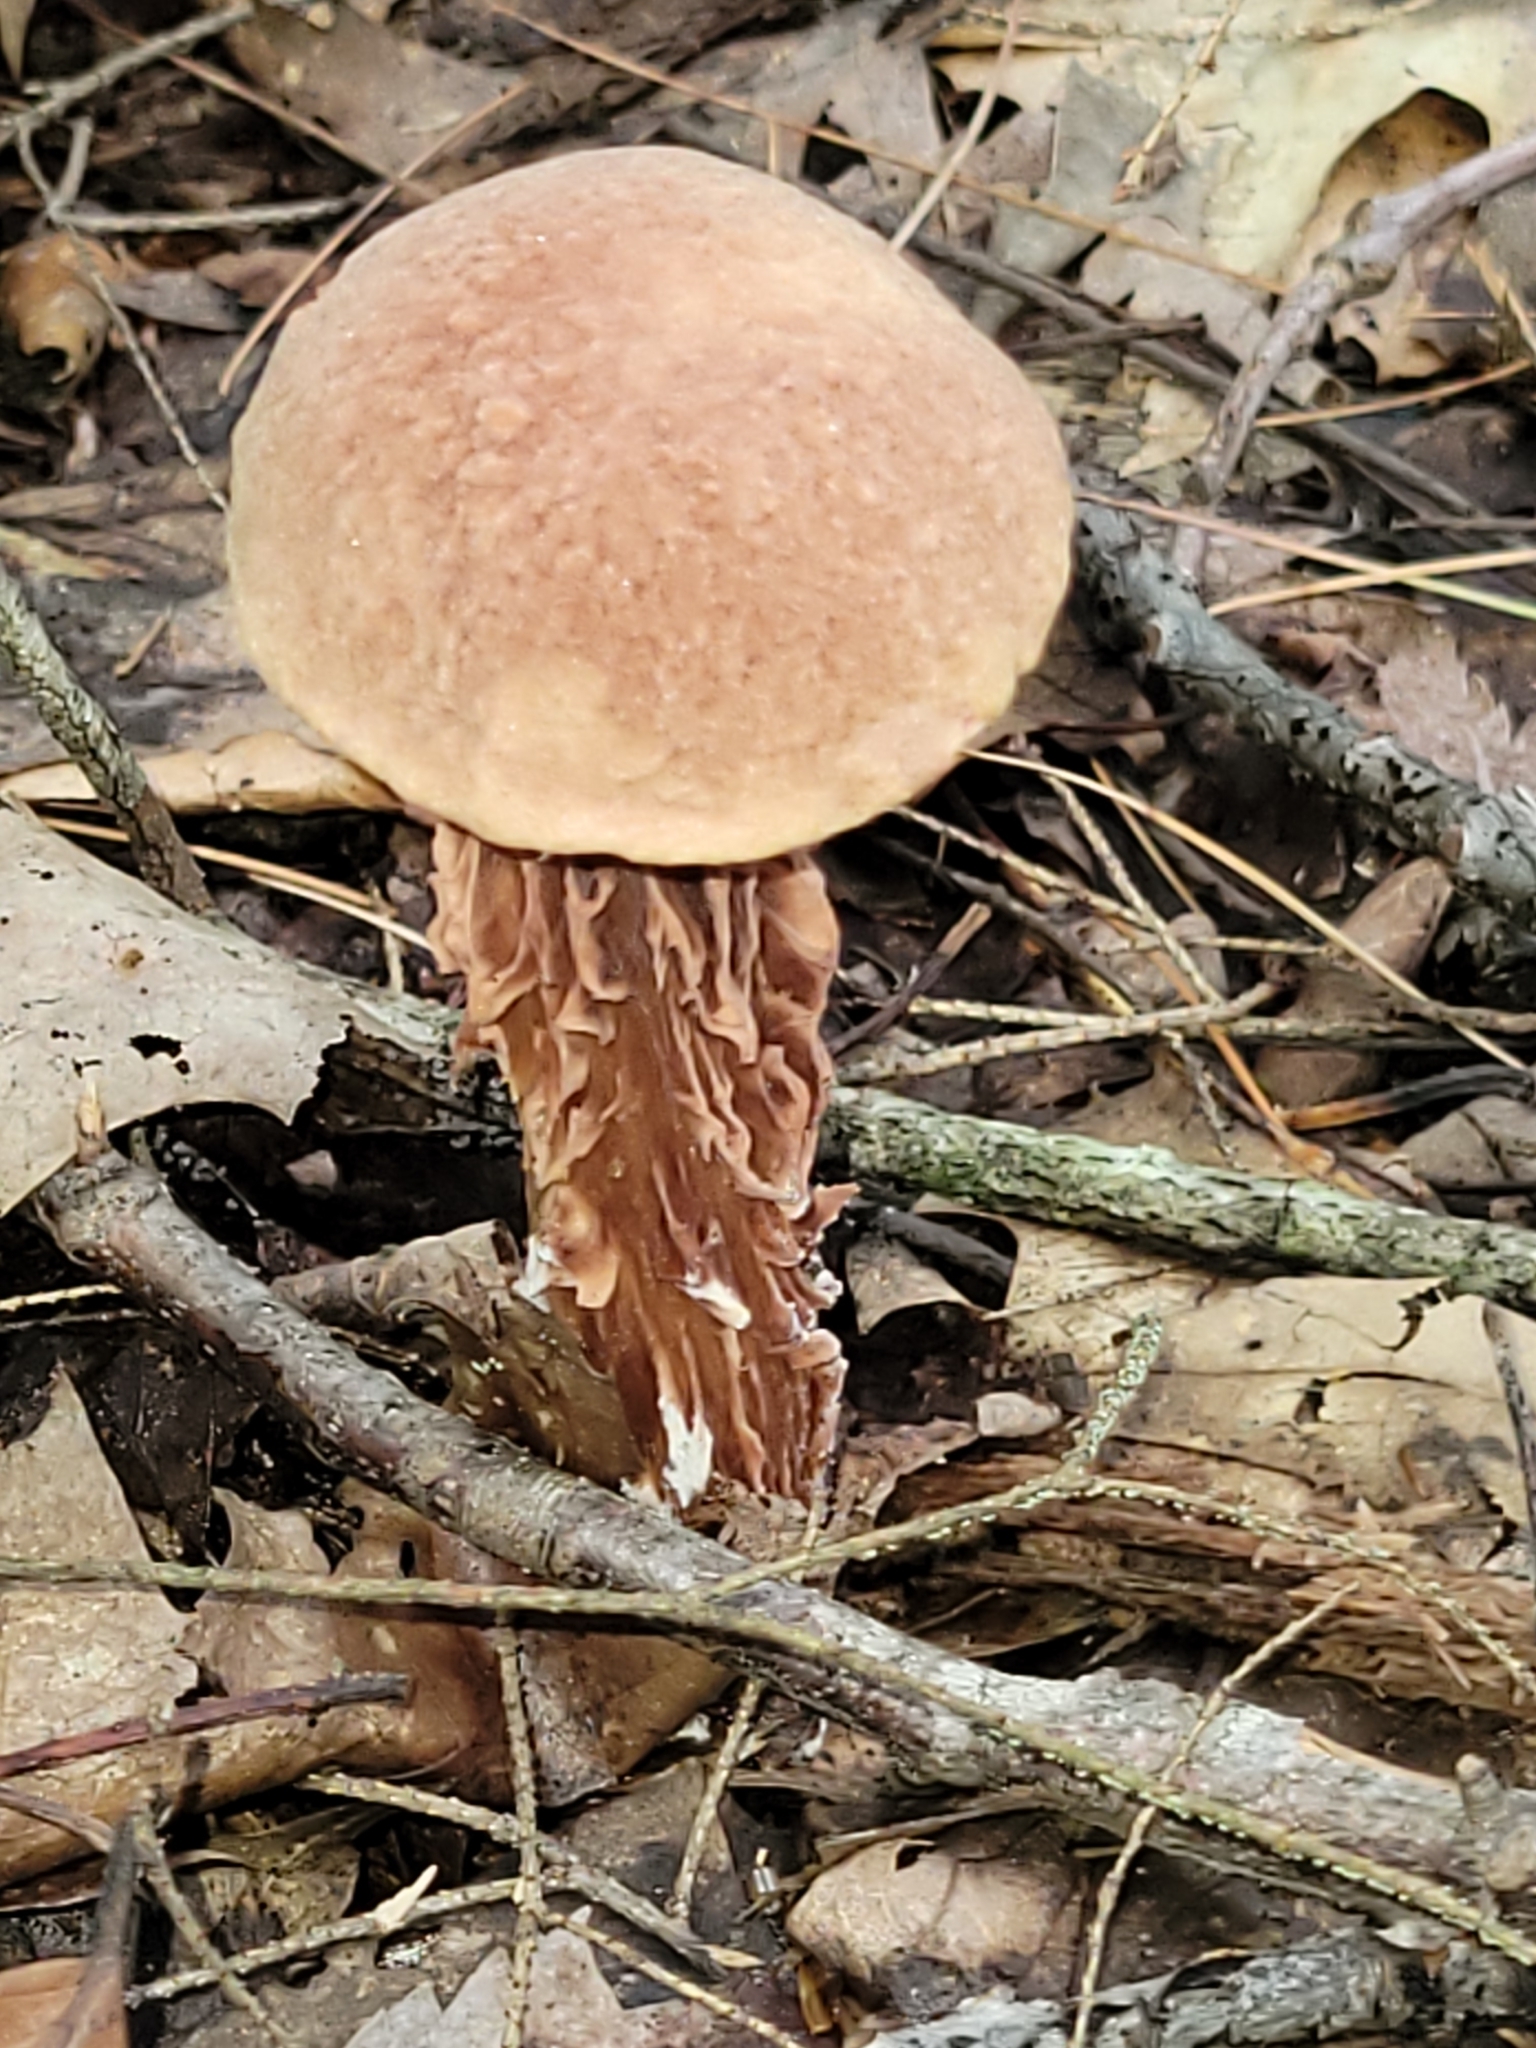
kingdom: Fungi
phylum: Basidiomycota
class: Agaricomycetes
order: Boletales
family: Boletaceae
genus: Aureoboletus
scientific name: Aureoboletus russellii
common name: Russell's bolete
